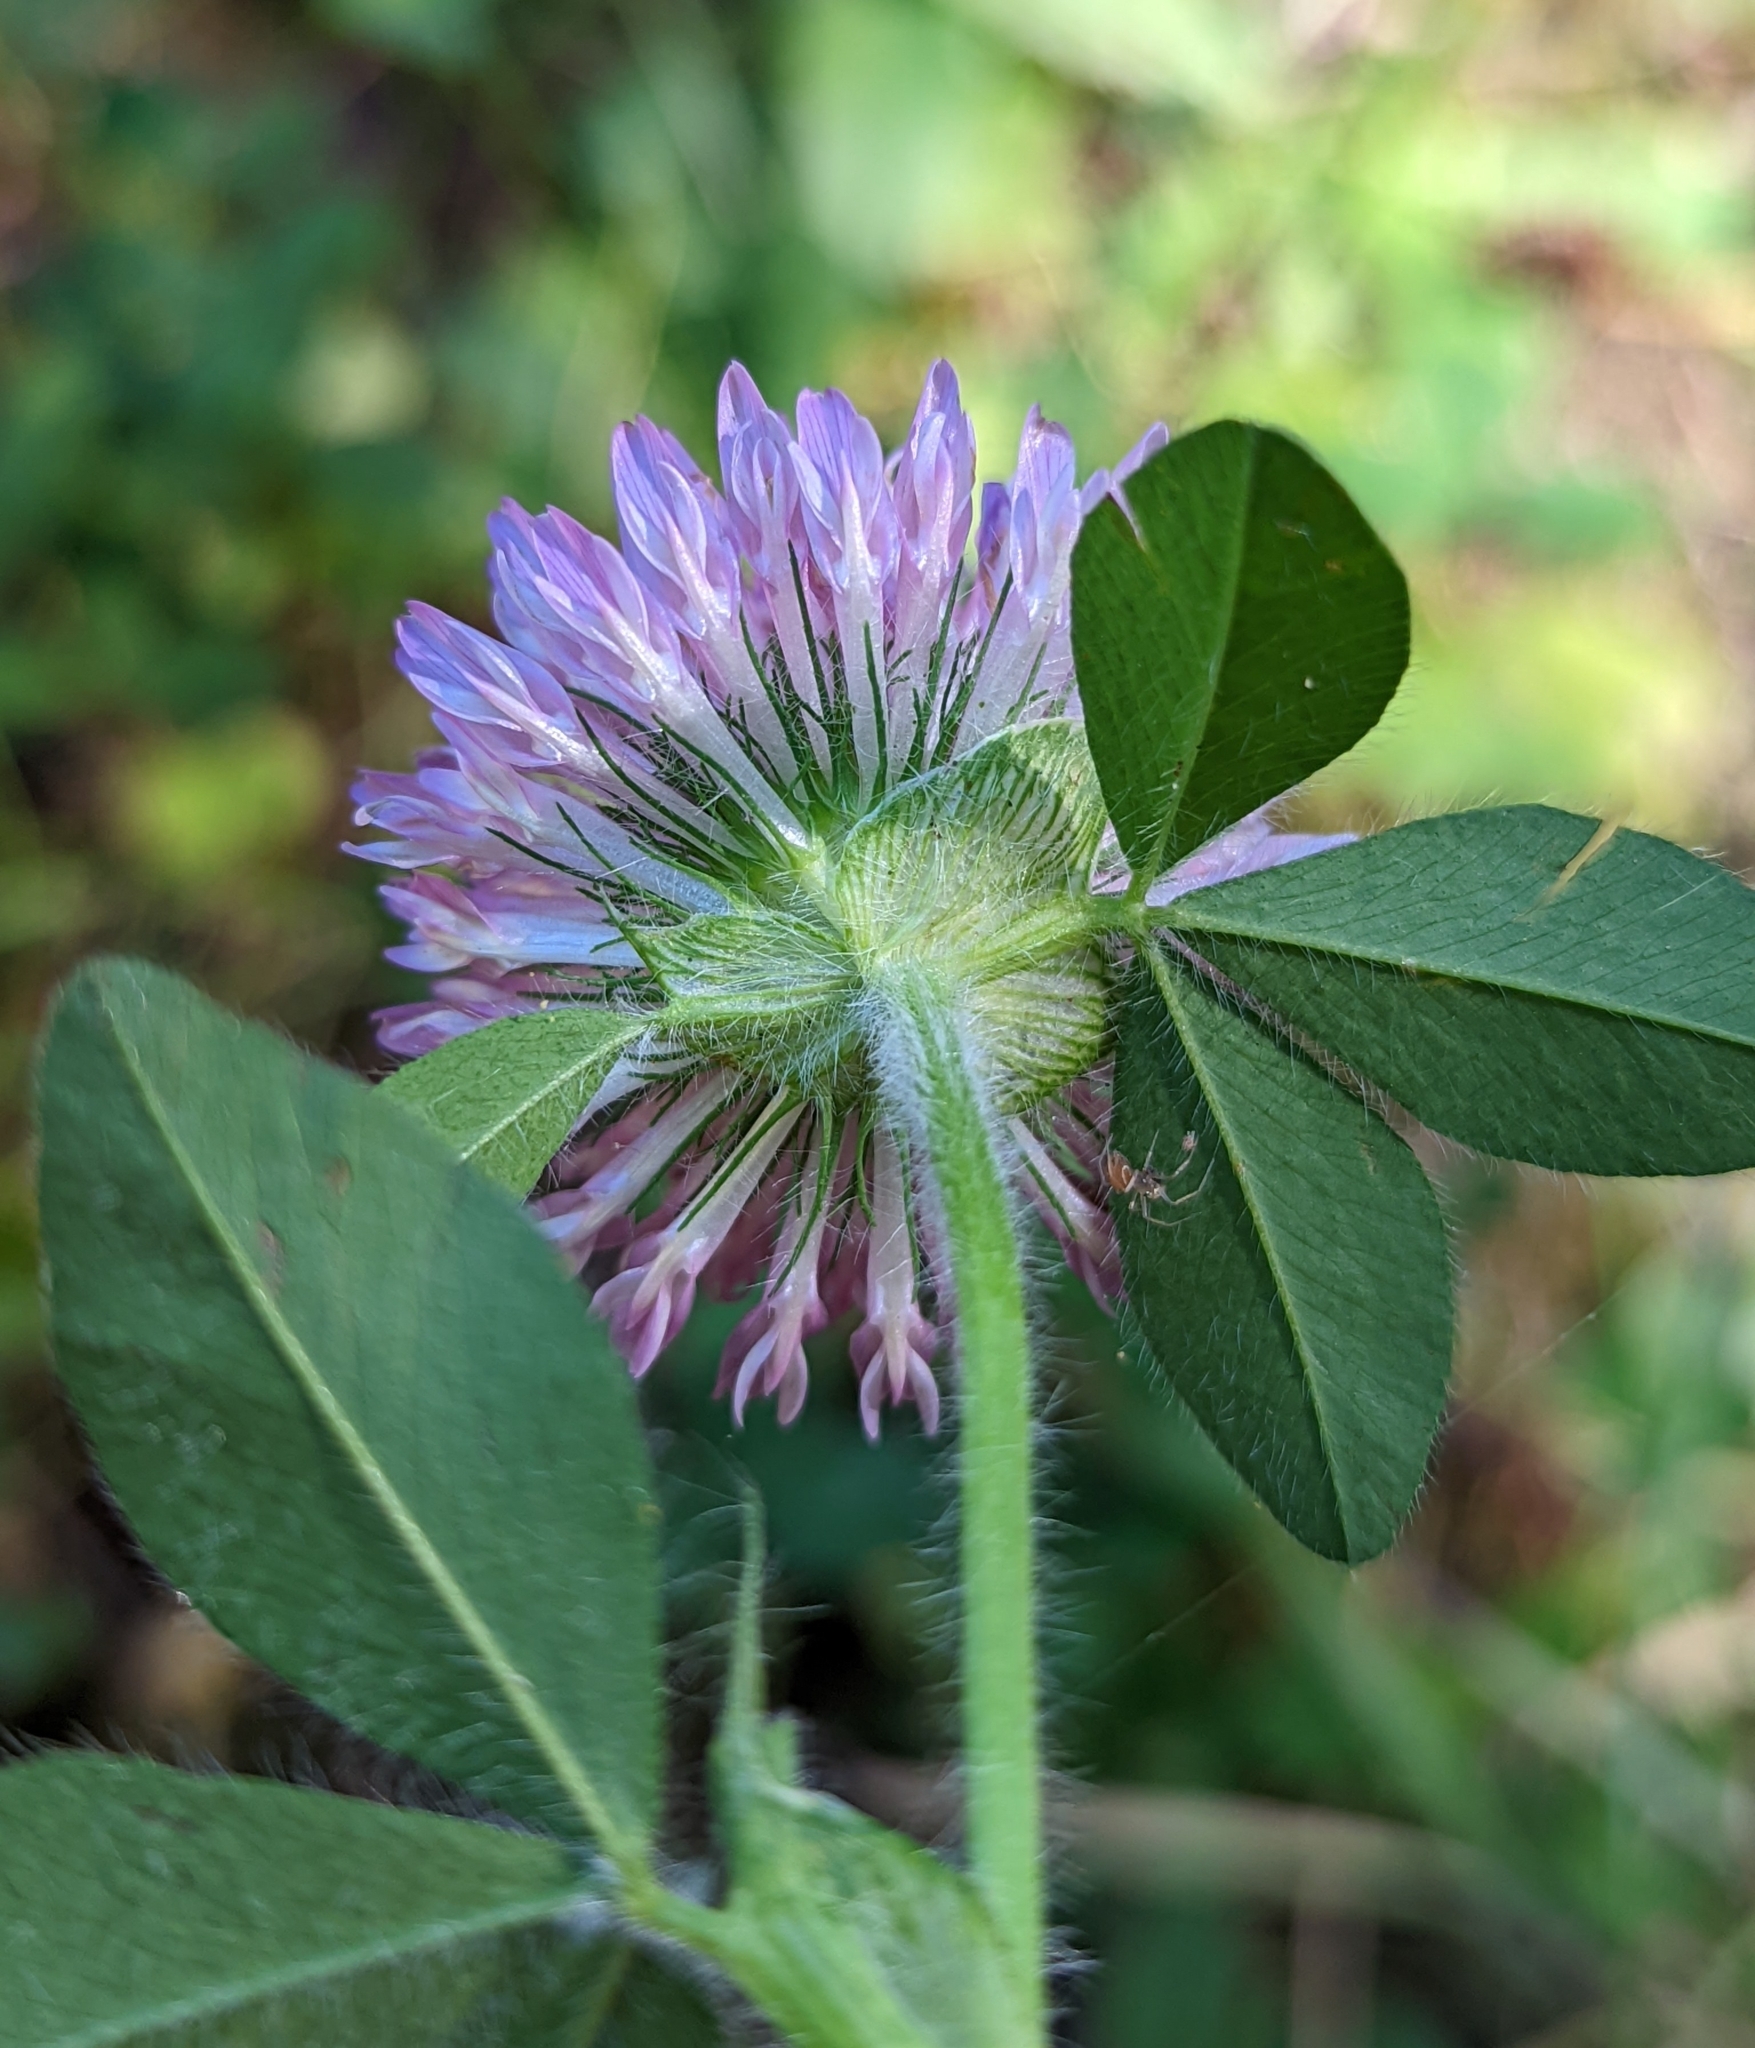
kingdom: Plantae
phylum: Tracheophyta
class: Magnoliopsida
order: Fabales
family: Fabaceae
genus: Trifolium
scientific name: Trifolium pratense
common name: Red clover
